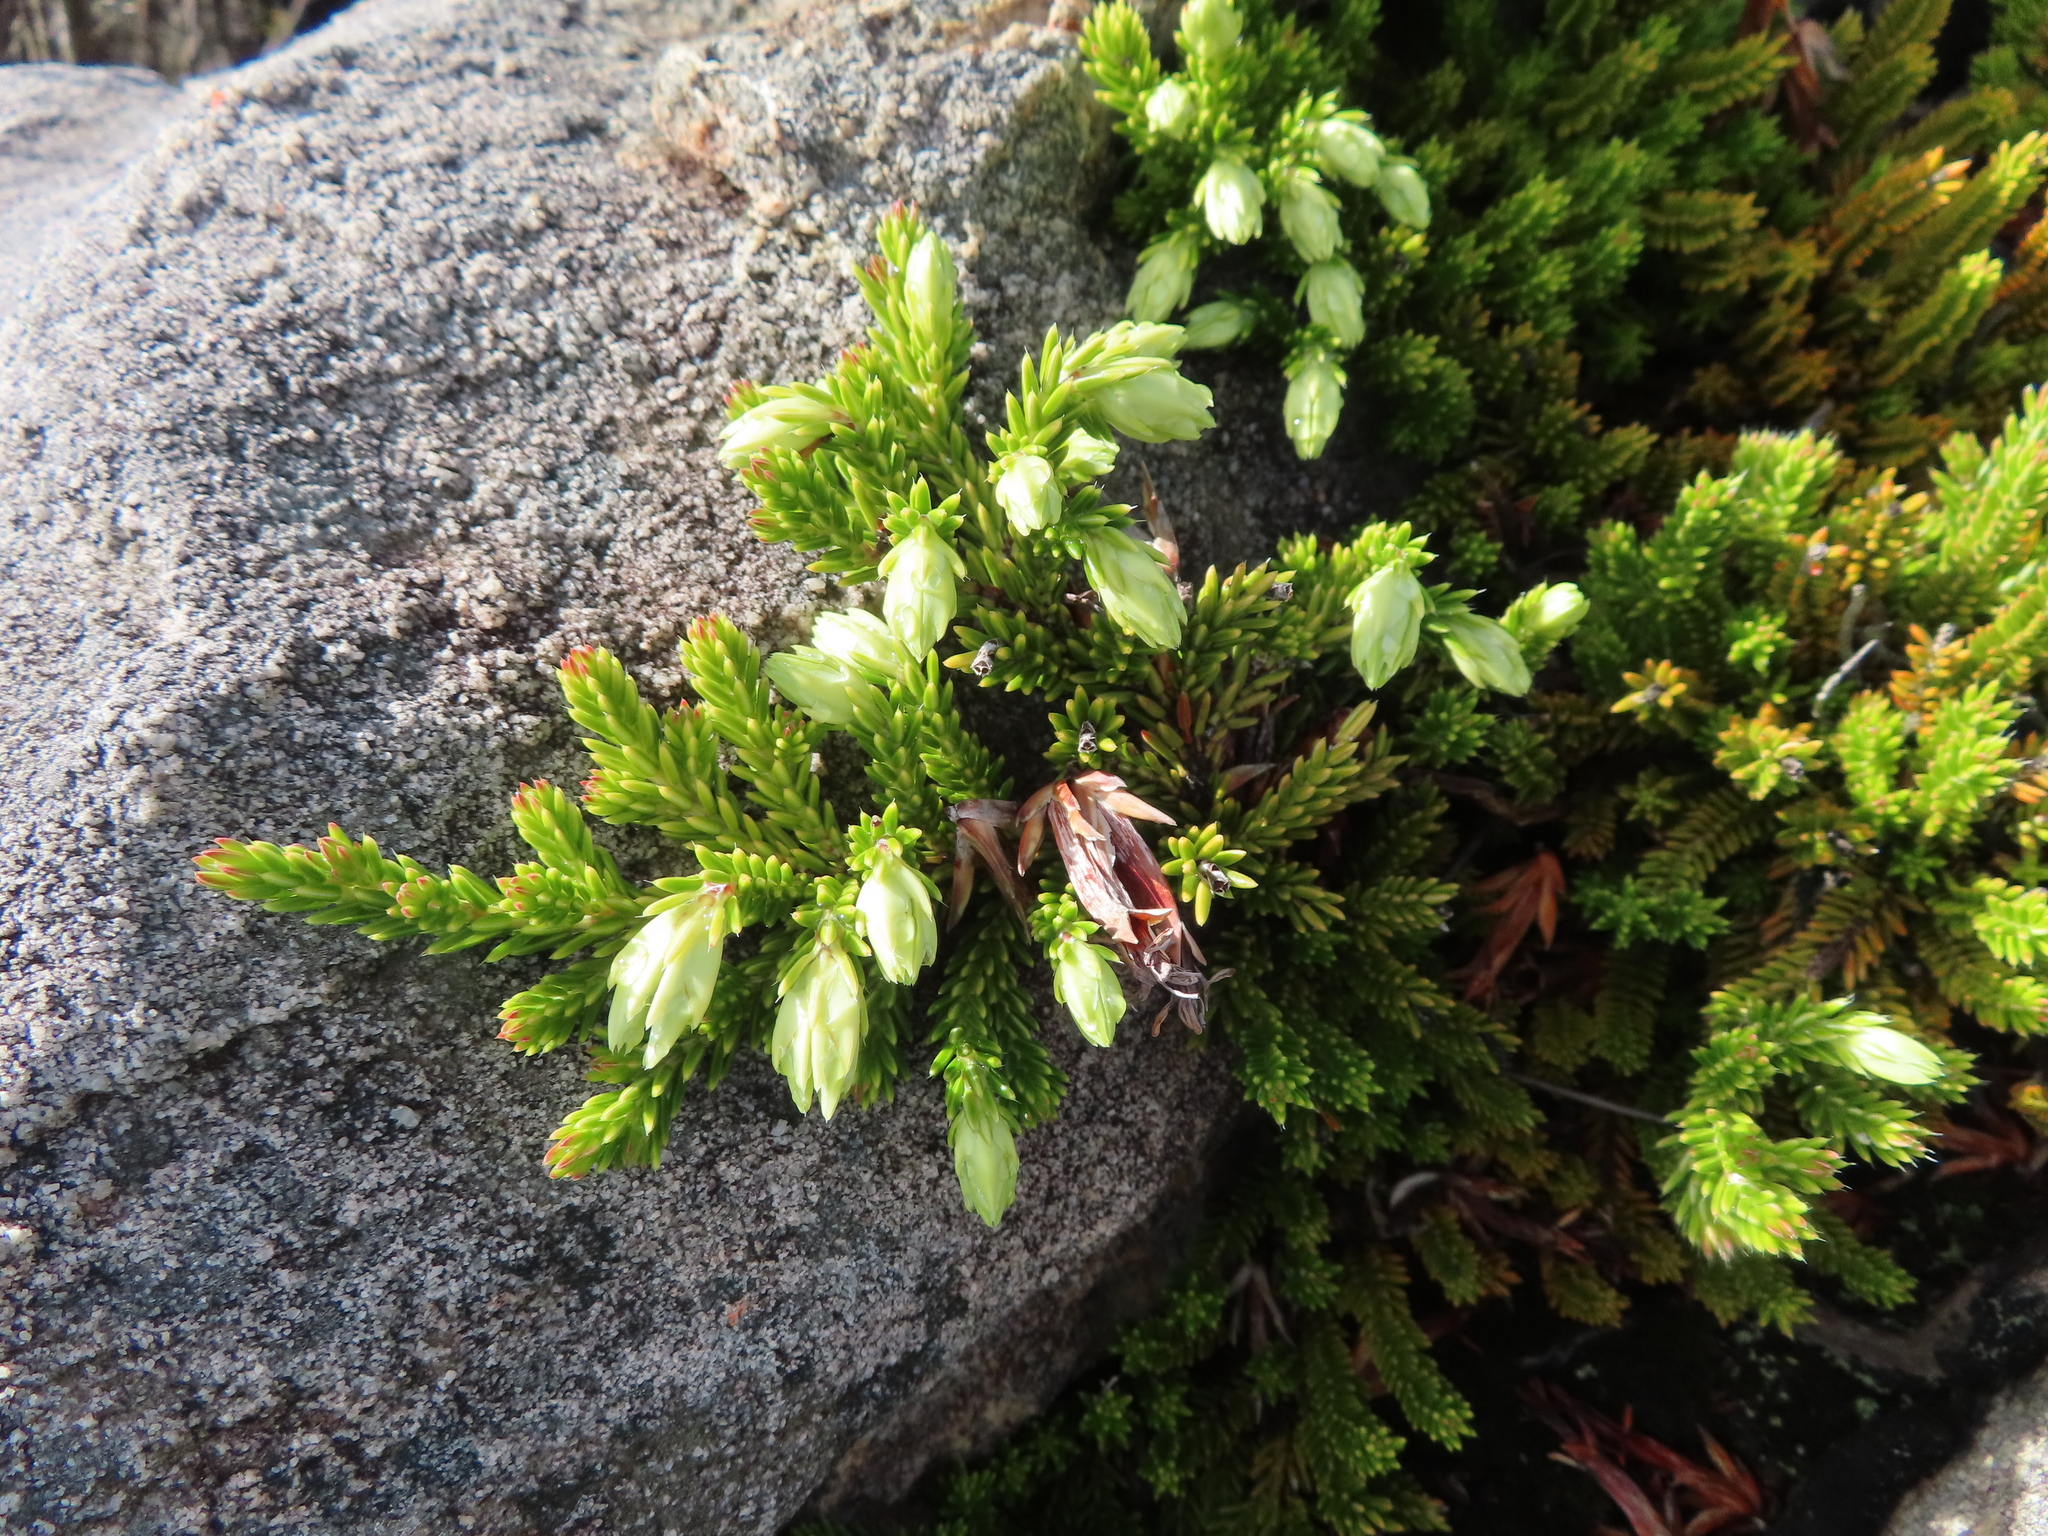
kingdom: Plantae
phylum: Tracheophyta
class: Magnoliopsida
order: Ericales
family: Ericaceae
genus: Erica
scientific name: Erica banksia
